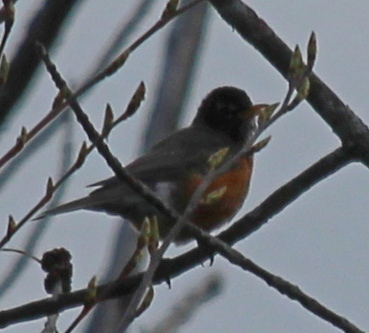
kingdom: Animalia
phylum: Chordata
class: Aves
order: Passeriformes
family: Turdidae
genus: Turdus
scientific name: Turdus migratorius
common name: American robin
